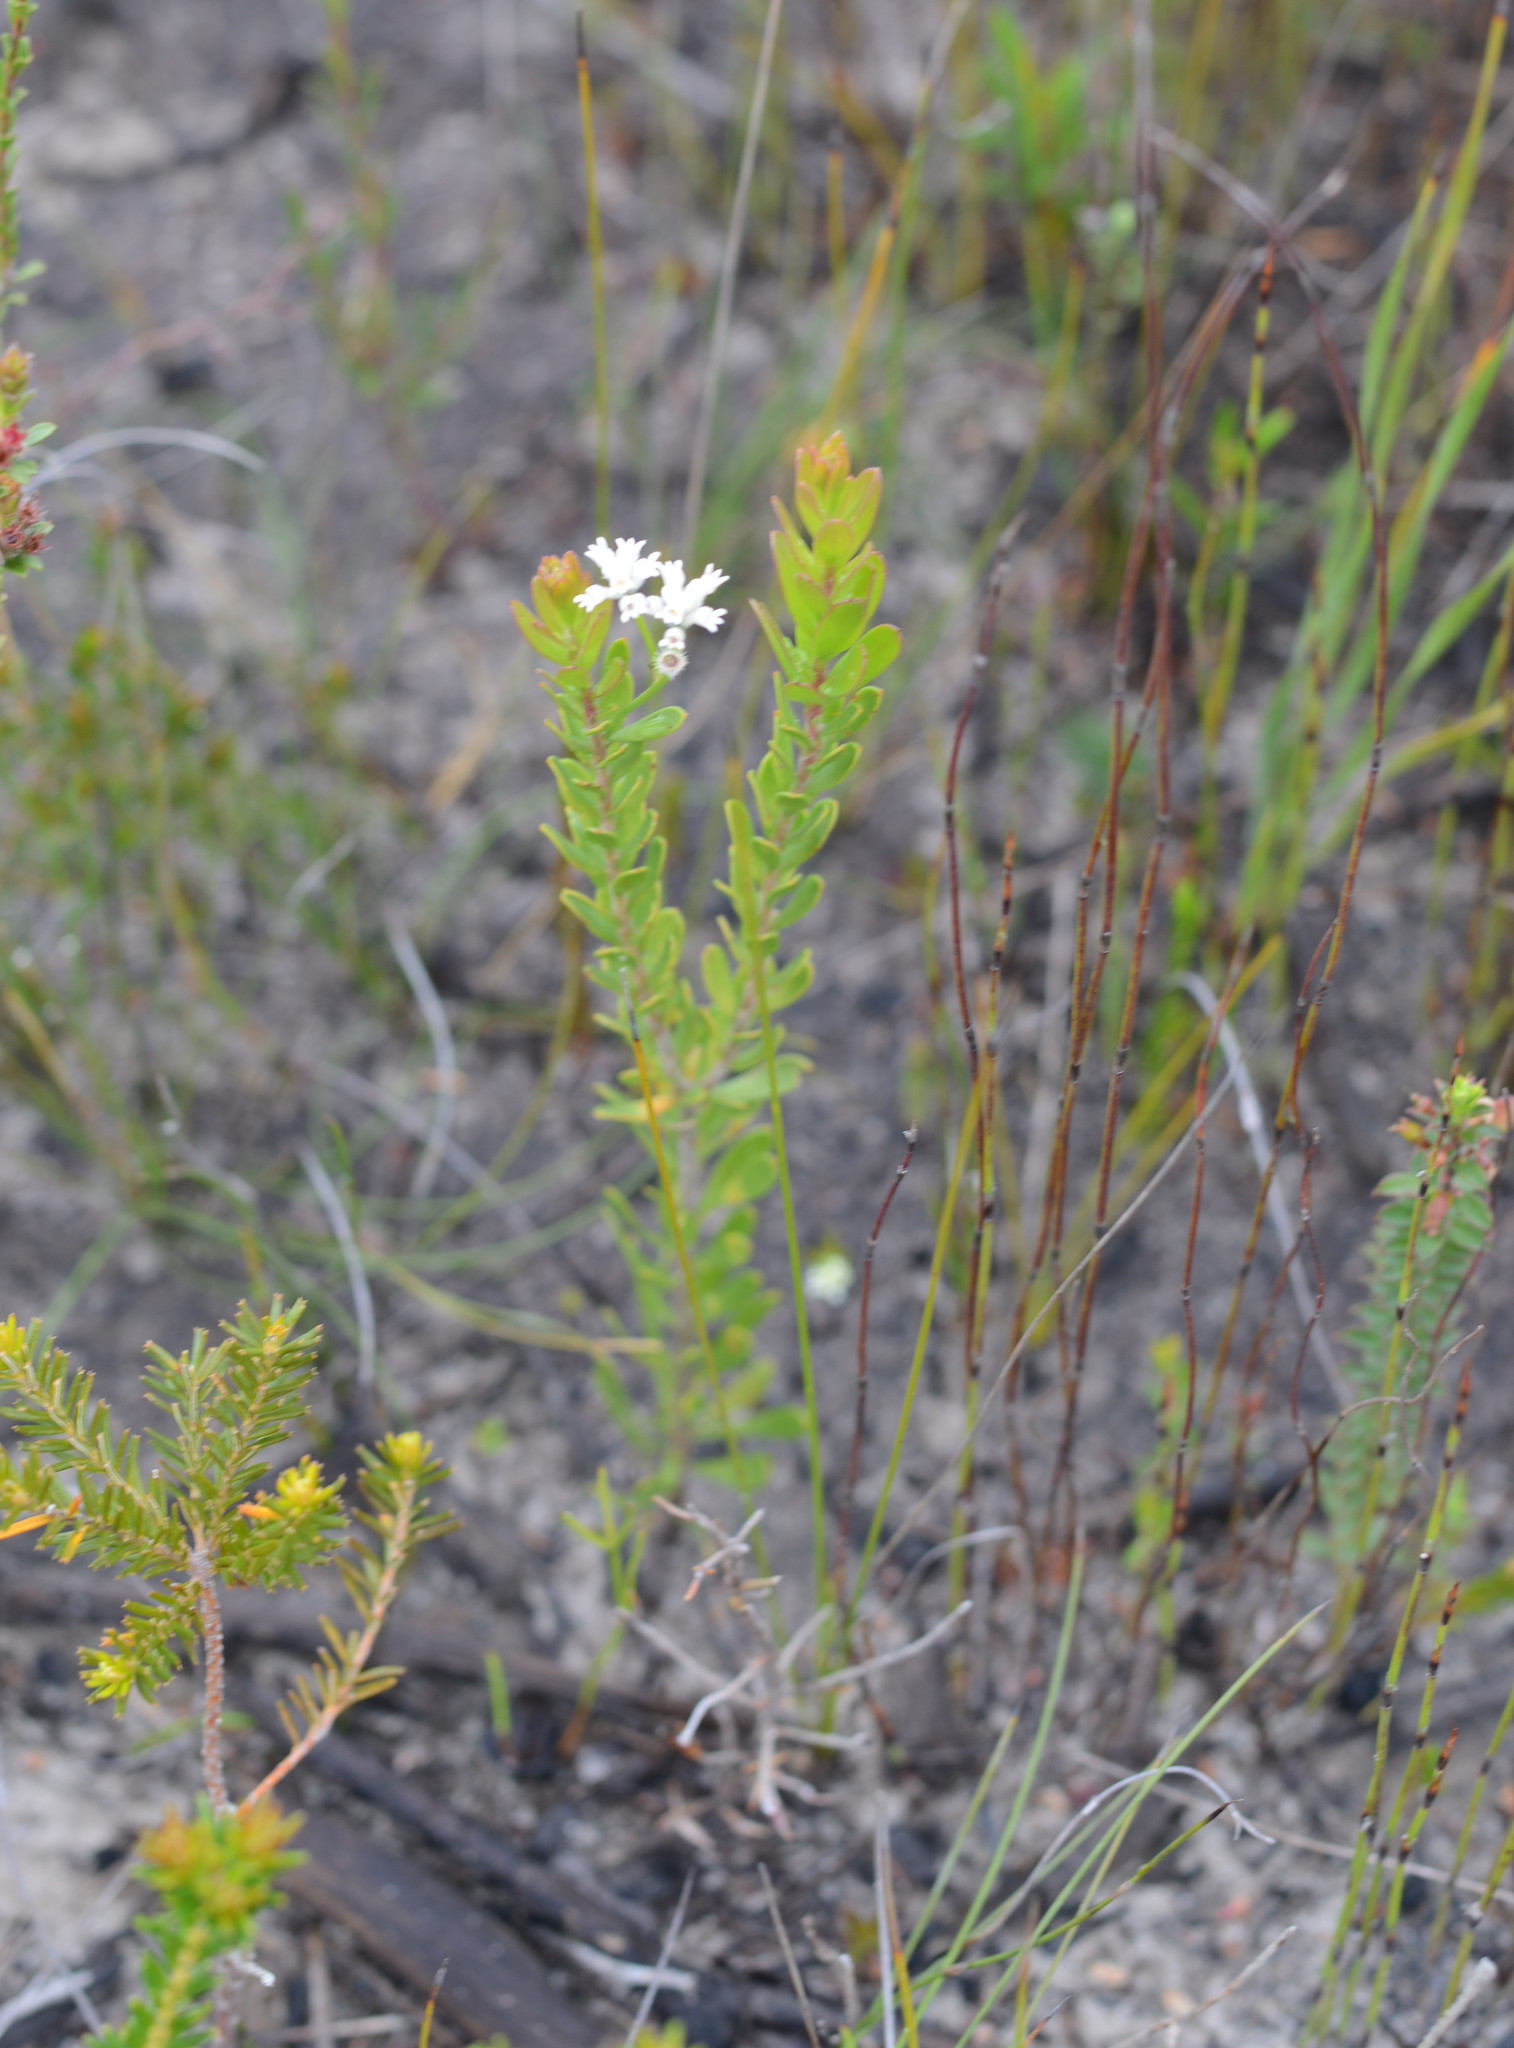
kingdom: Plantae
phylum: Tracheophyta
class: Magnoliopsida
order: Proteales
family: Proteaceae
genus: Conospermum
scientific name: Conospermum ellipticum
